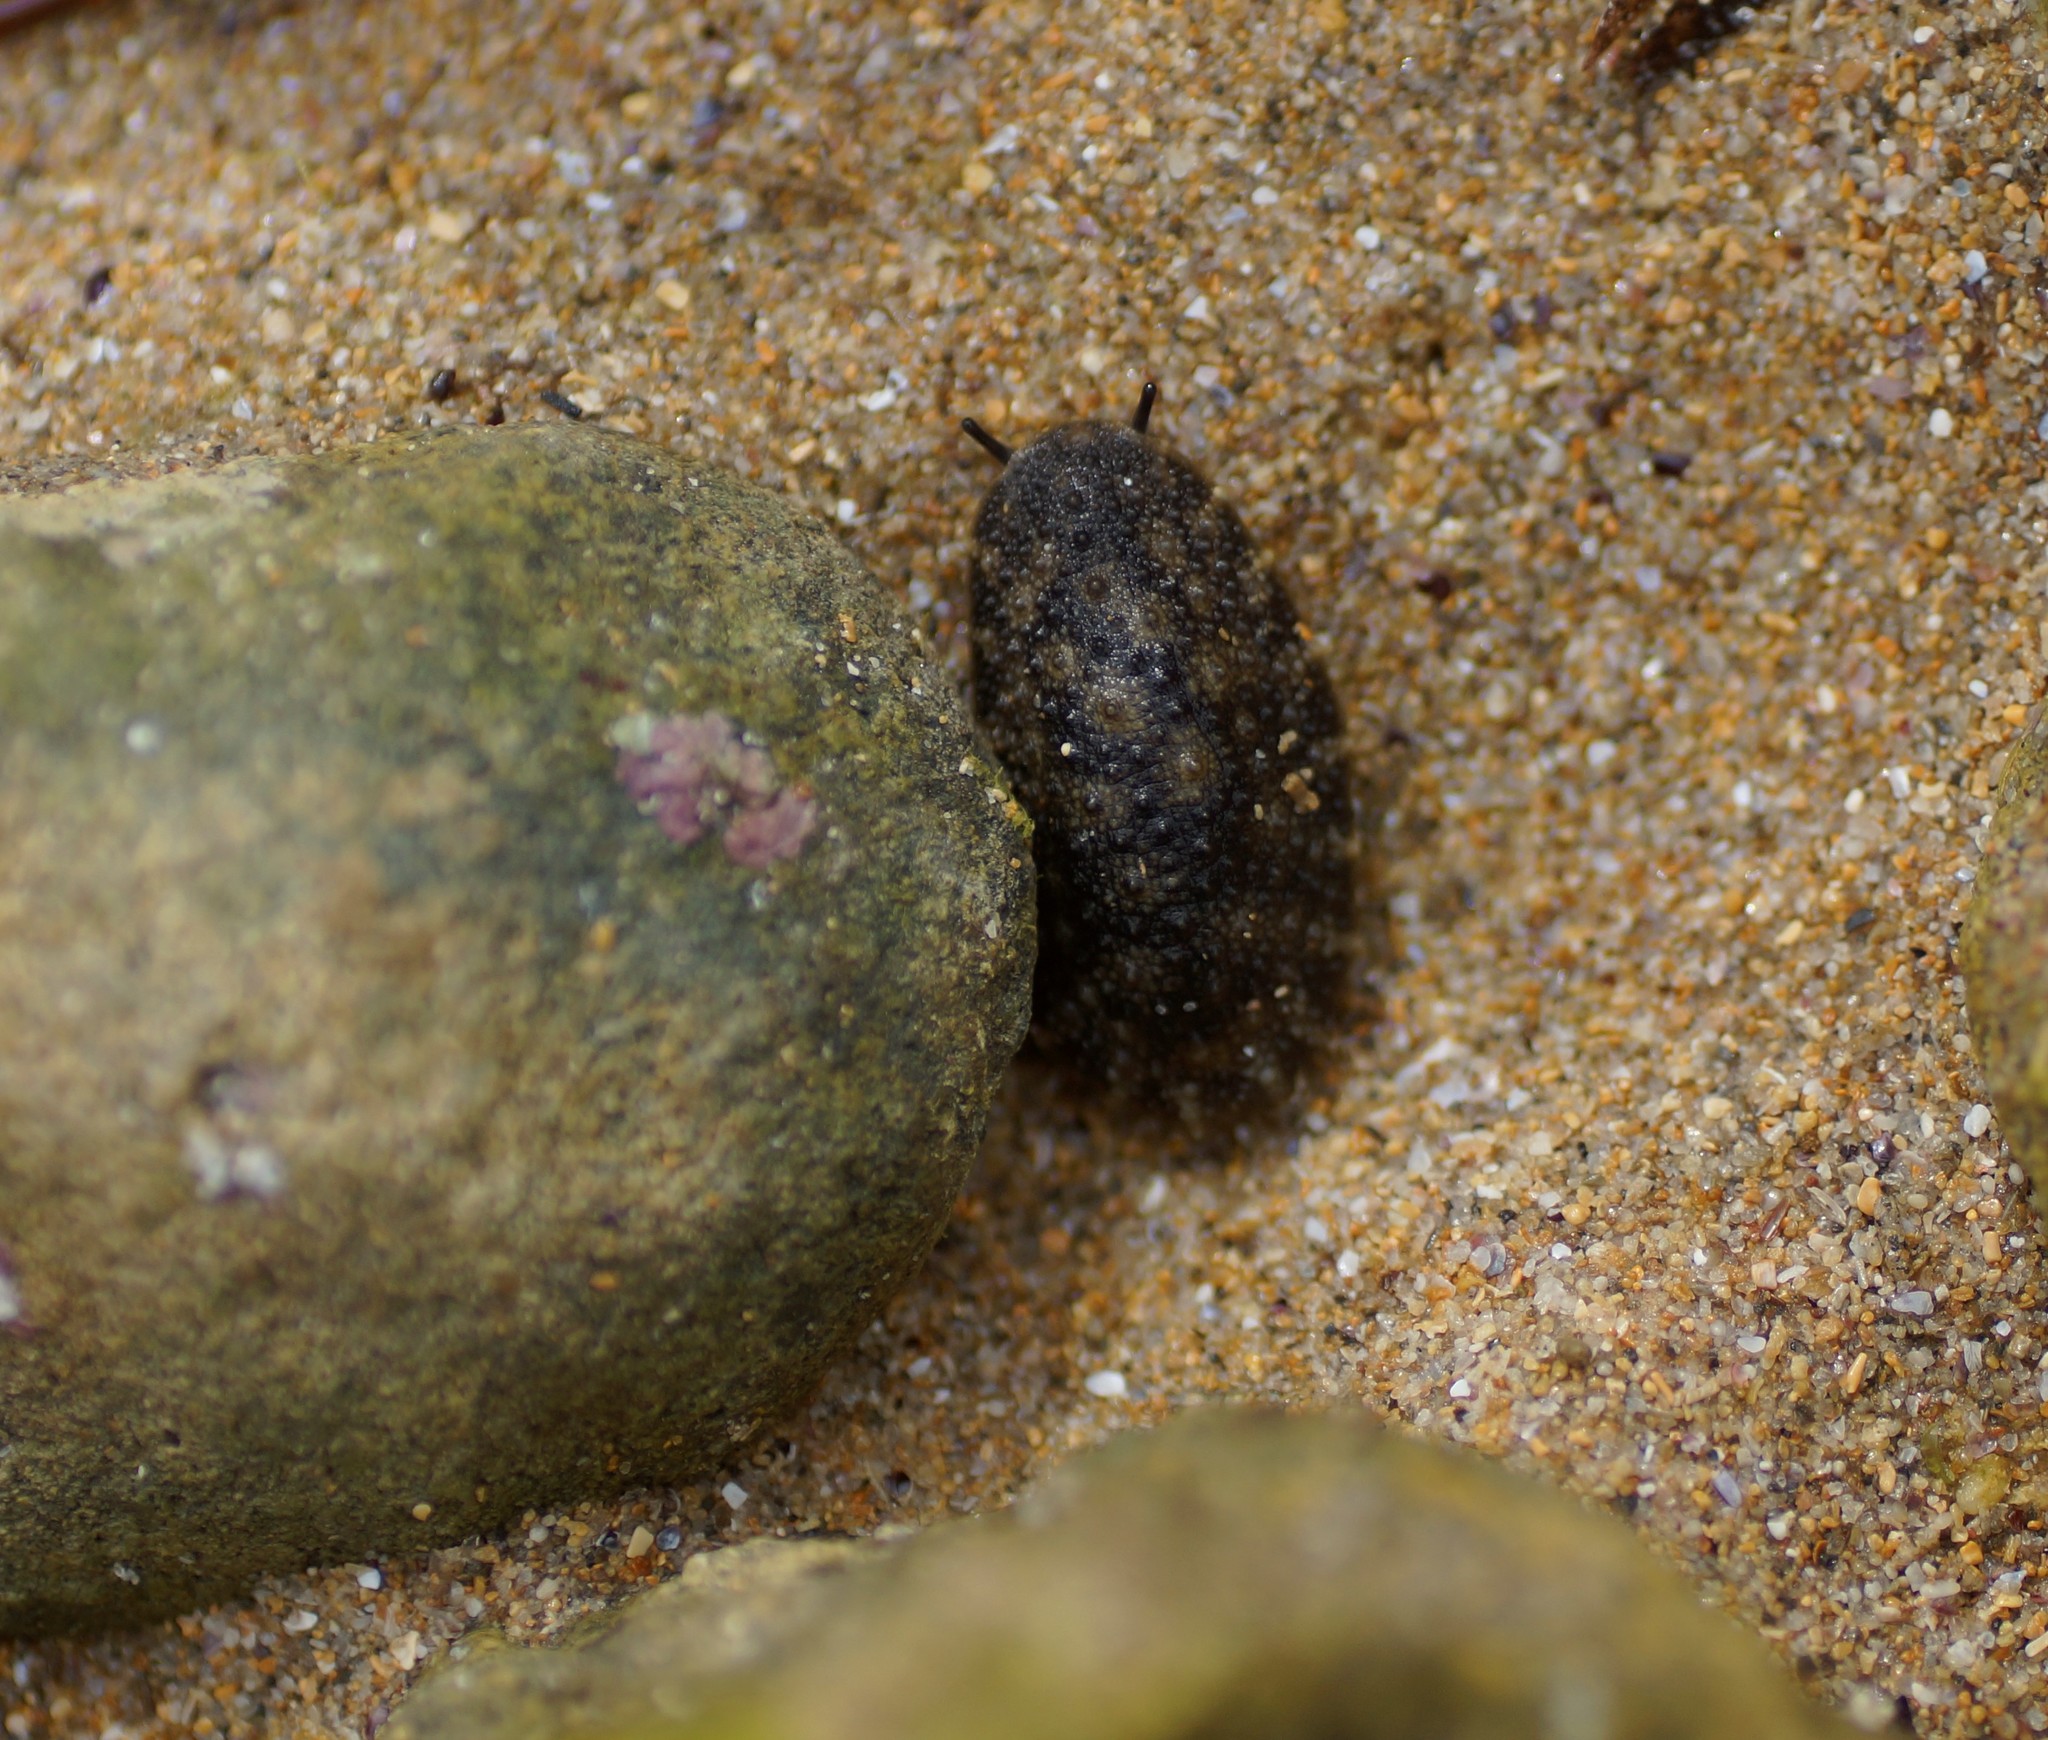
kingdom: Animalia
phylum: Mollusca
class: Gastropoda
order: Systellommatophora
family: Onchidiidae
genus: Onchidella
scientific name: Onchidella nigricans
